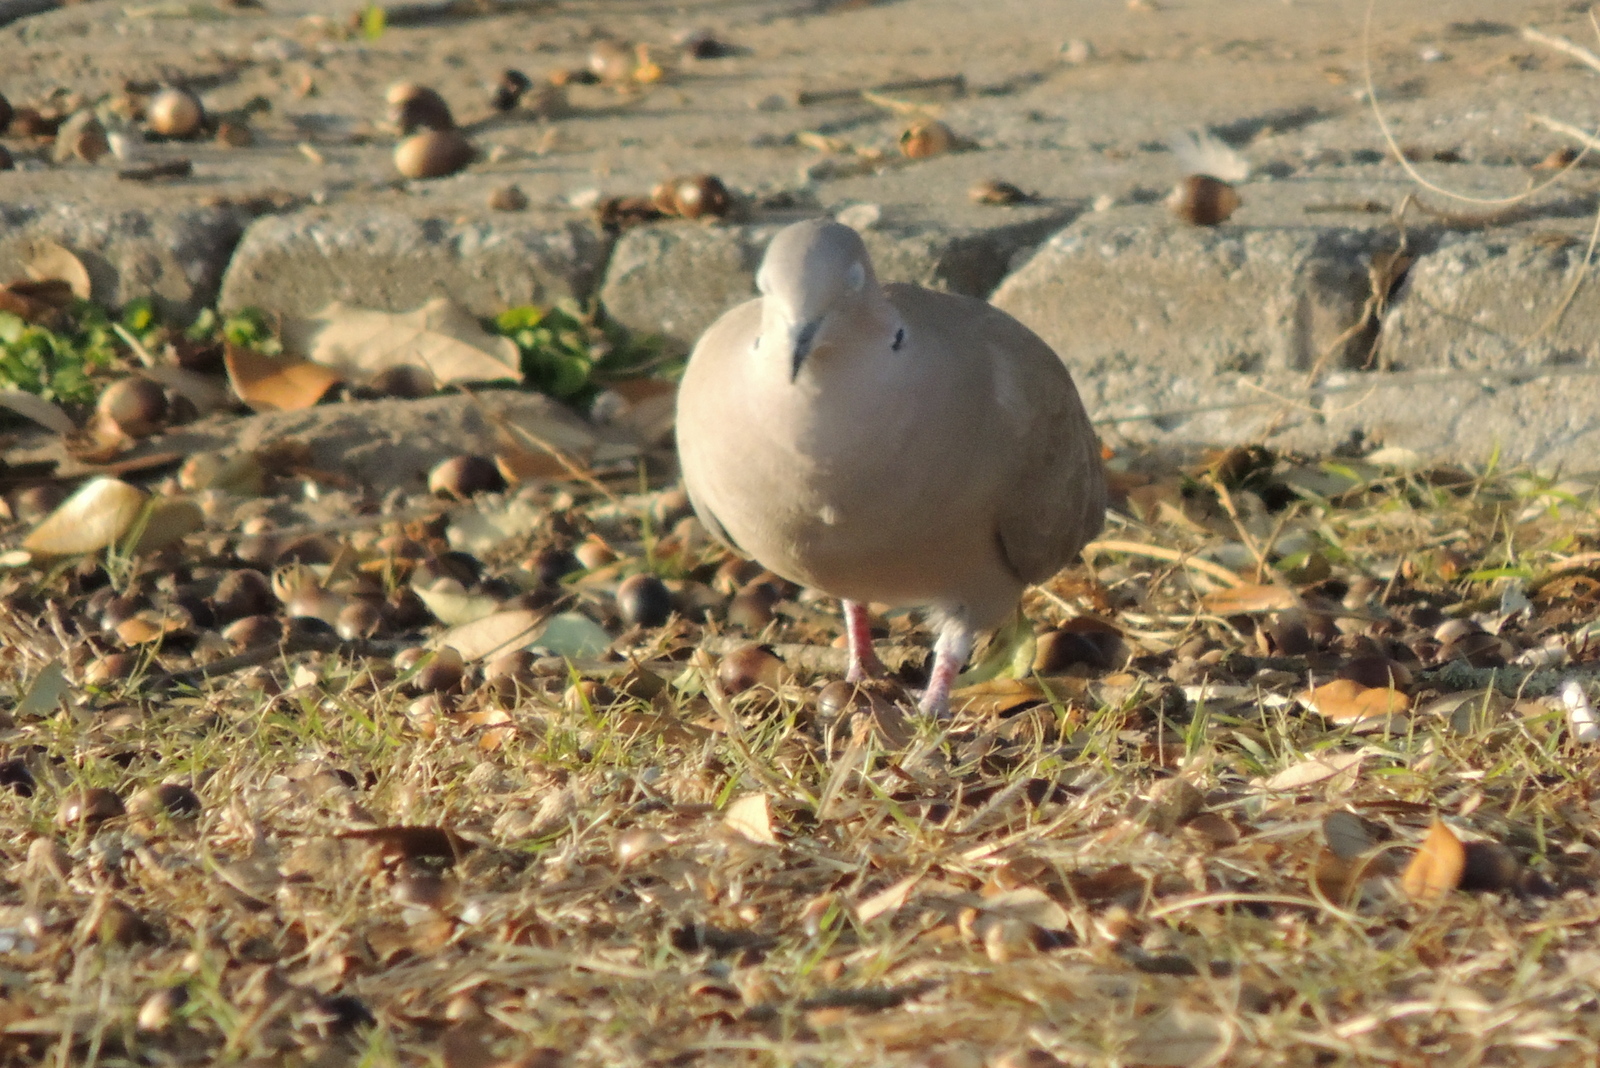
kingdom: Animalia
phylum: Chordata
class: Aves
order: Columbiformes
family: Columbidae
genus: Streptopelia
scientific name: Streptopelia decaocto
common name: Eurasian collared dove
